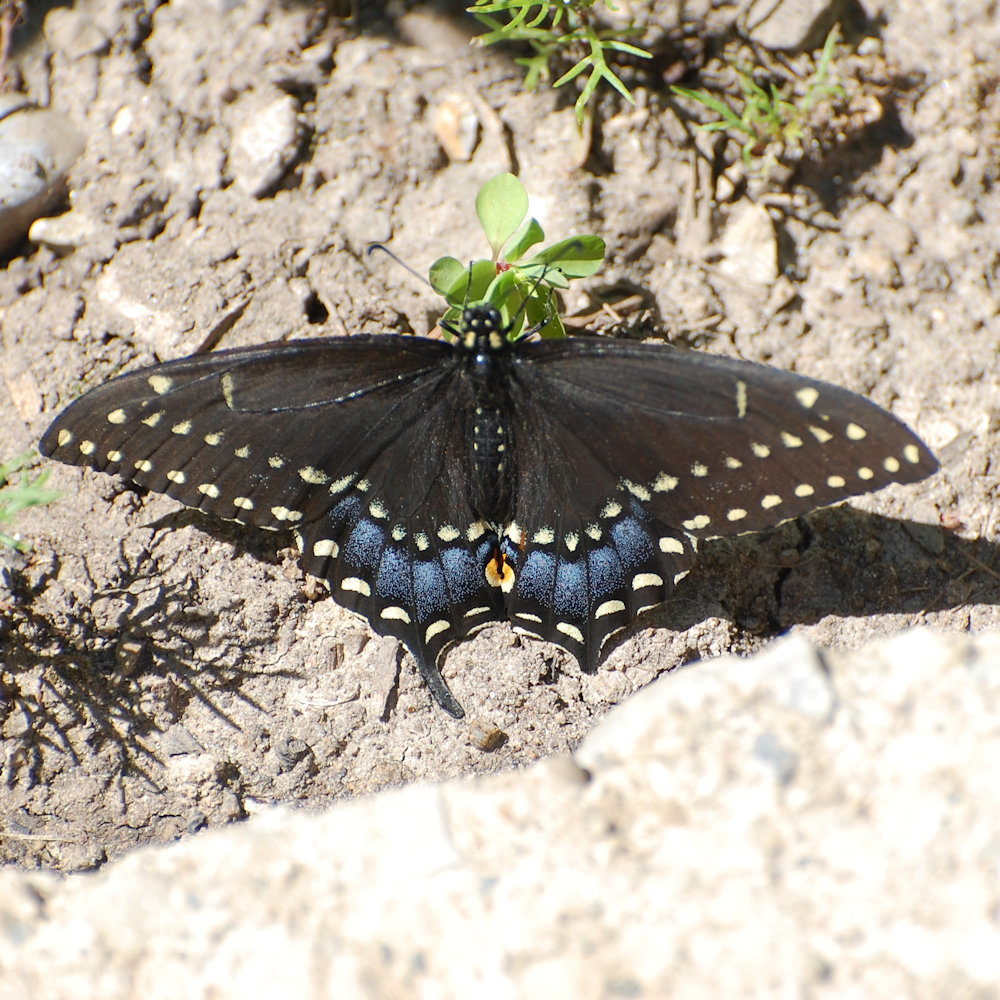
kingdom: Animalia
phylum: Arthropoda
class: Insecta
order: Lepidoptera
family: Papilionidae
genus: Papilio
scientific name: Papilio polyxenes
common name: Black swallowtail
